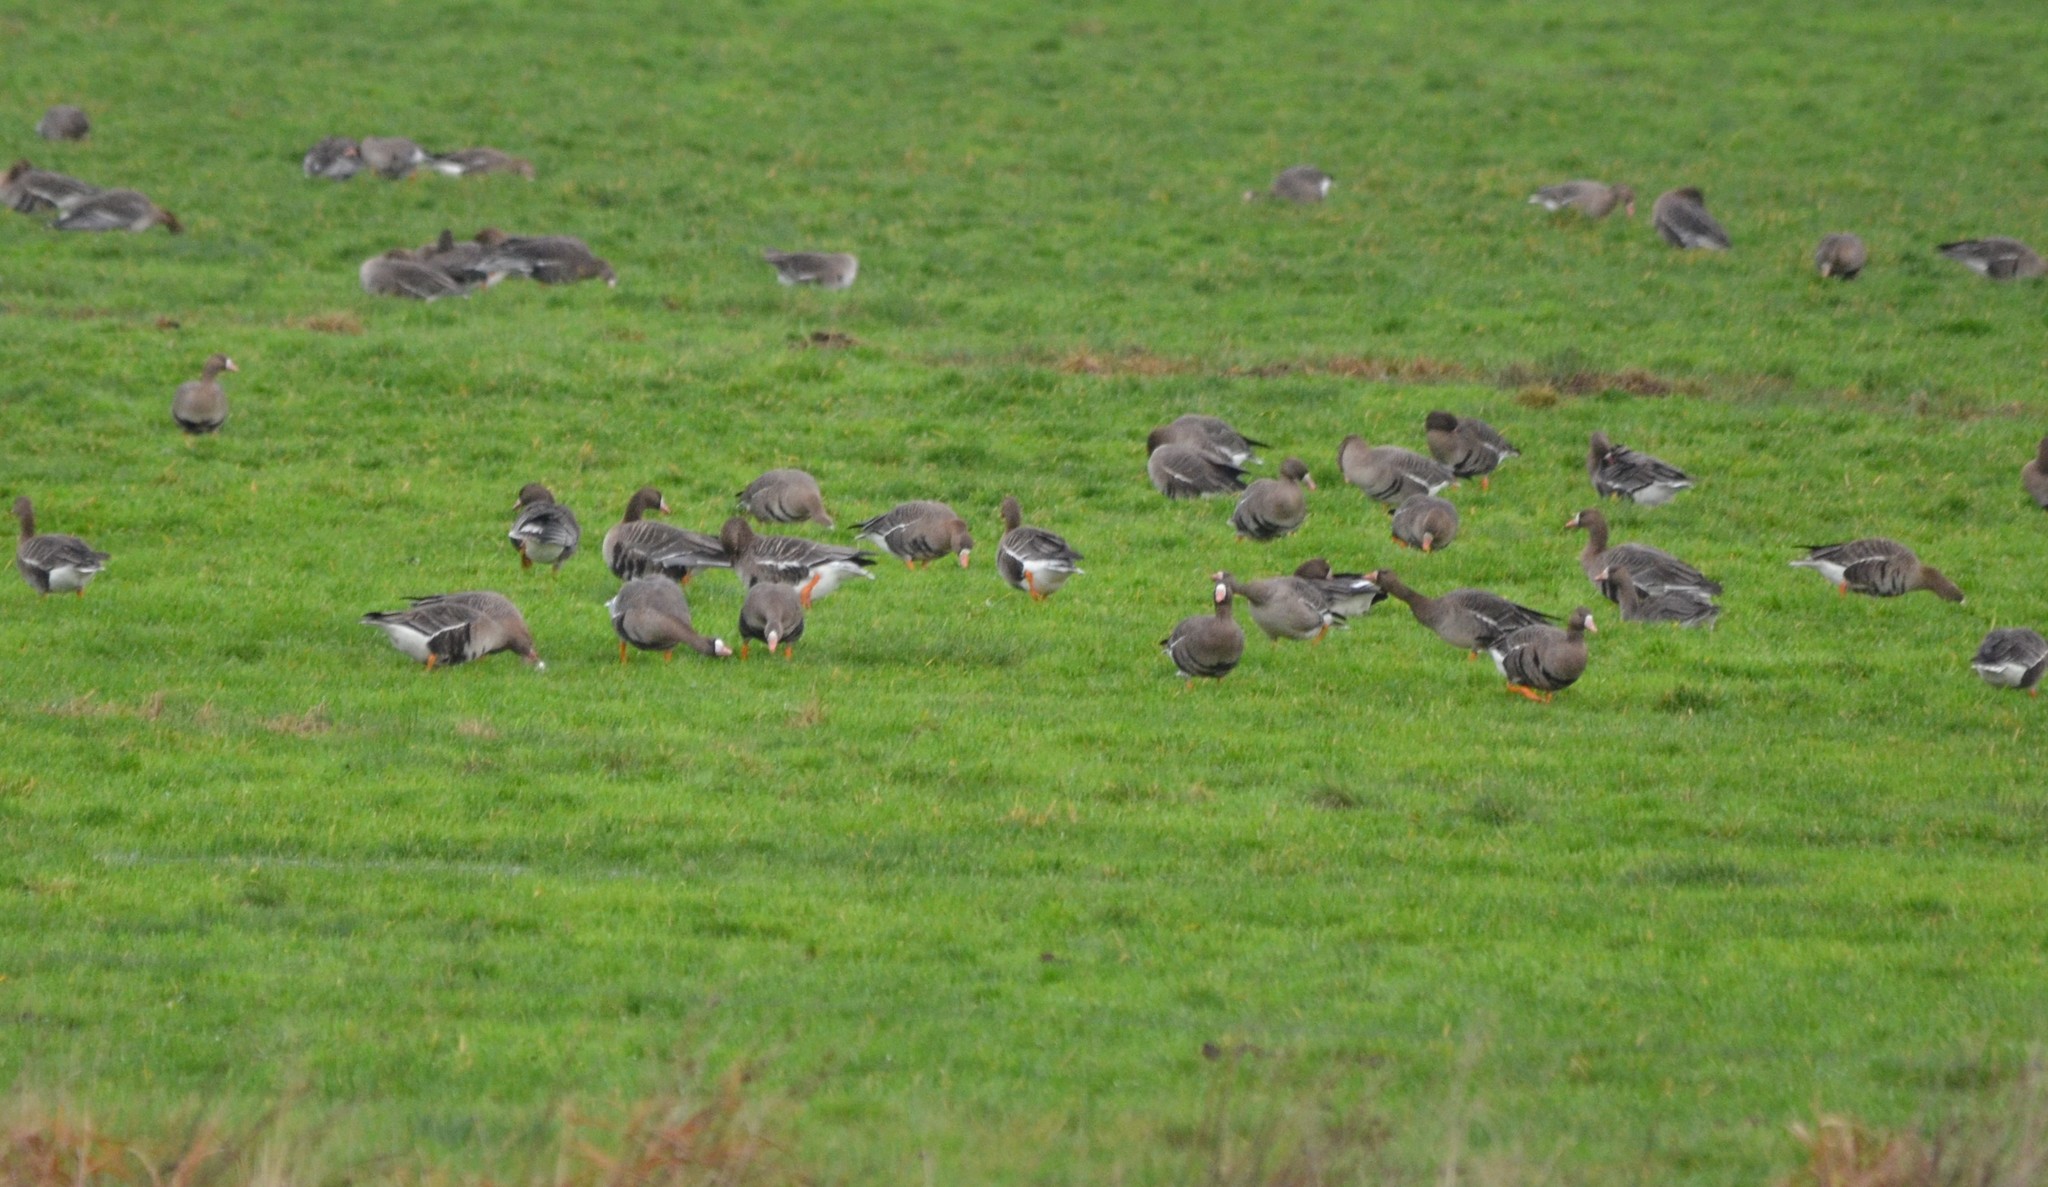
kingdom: Animalia
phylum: Chordata
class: Aves
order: Anseriformes
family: Anatidae
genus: Anser
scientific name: Anser albifrons
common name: Greater white-fronted goose
